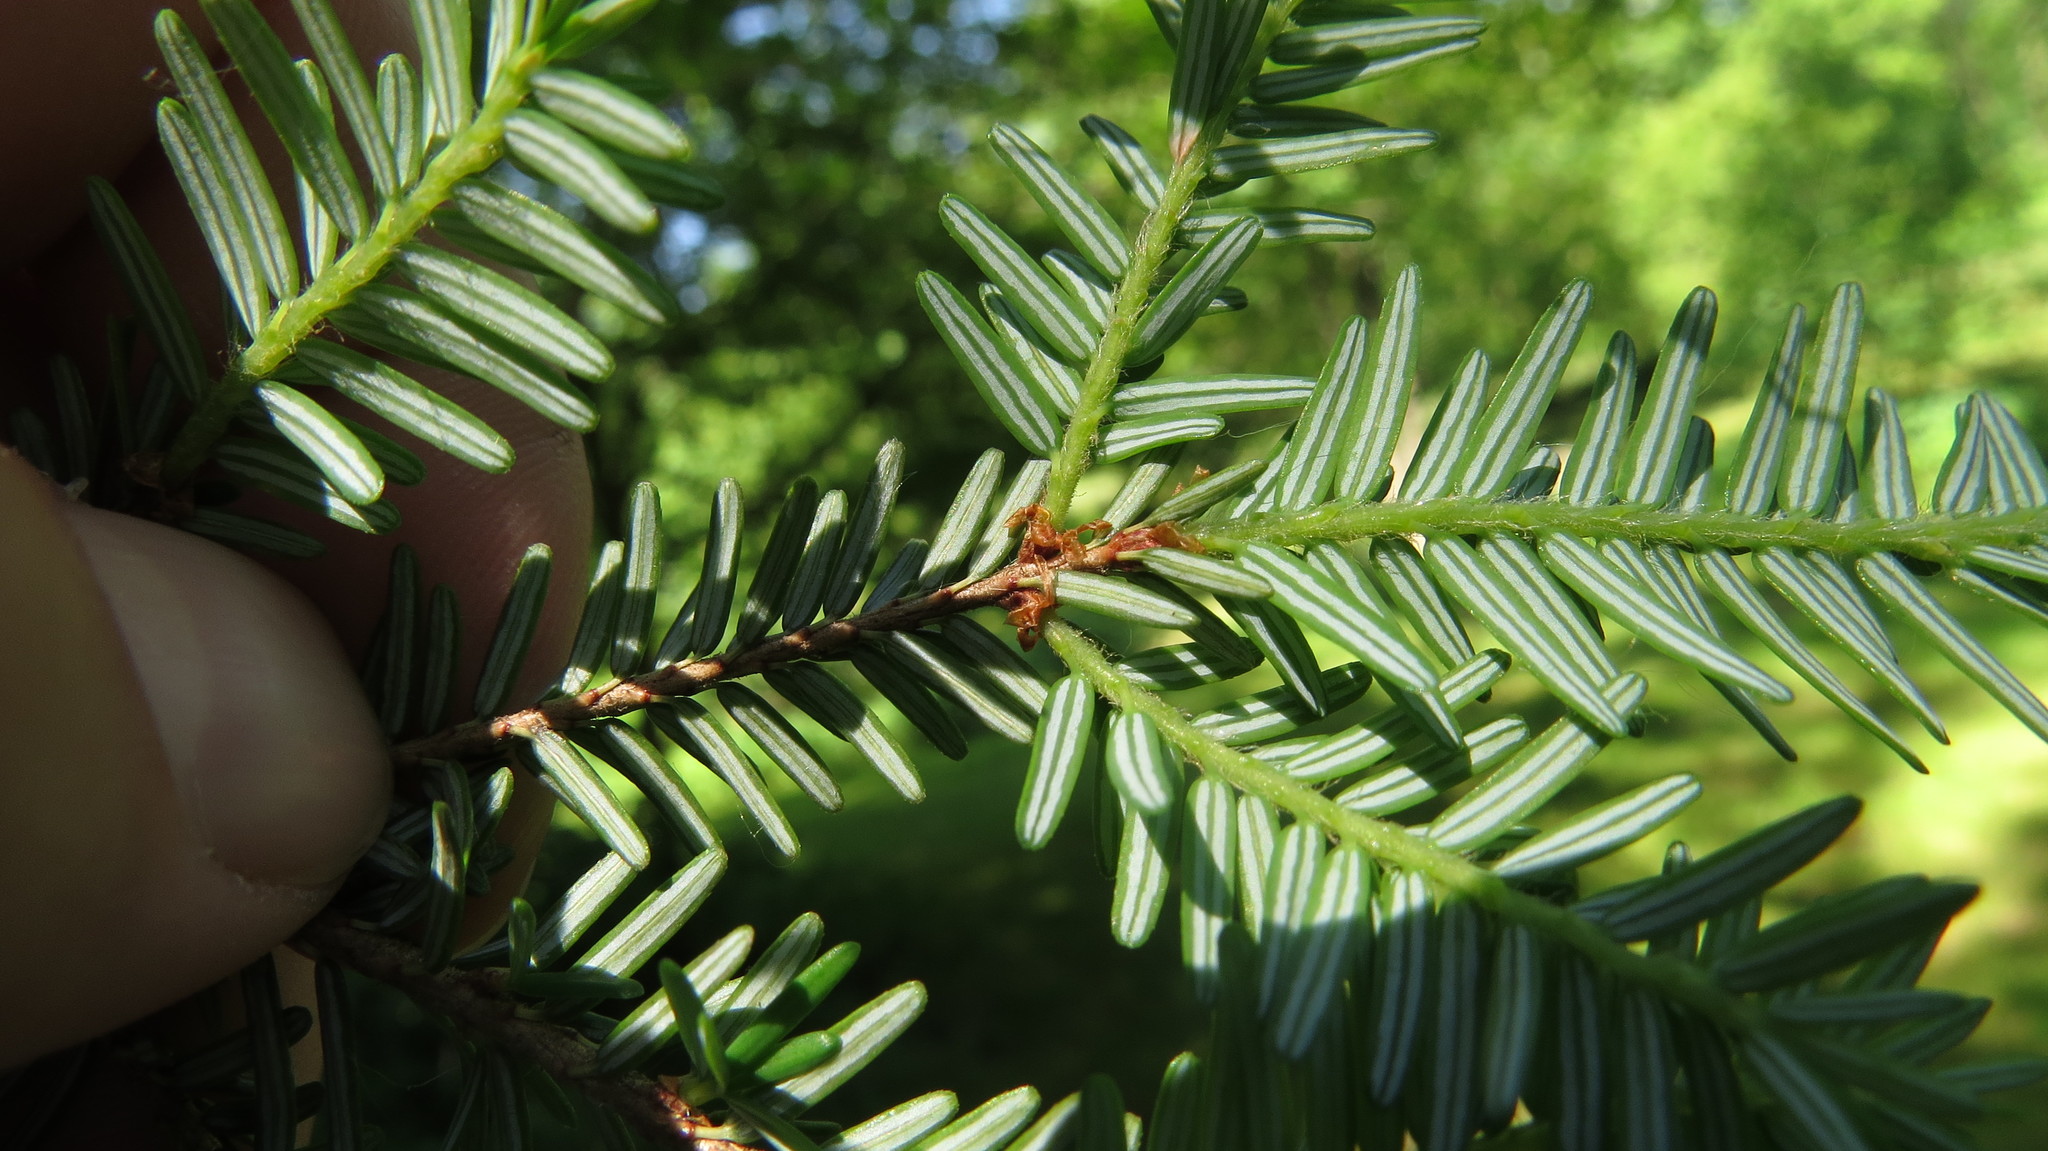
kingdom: Plantae
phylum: Tracheophyta
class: Pinopsida
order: Pinales
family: Pinaceae
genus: Tsuga
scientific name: Tsuga canadensis
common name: Eastern hemlock
